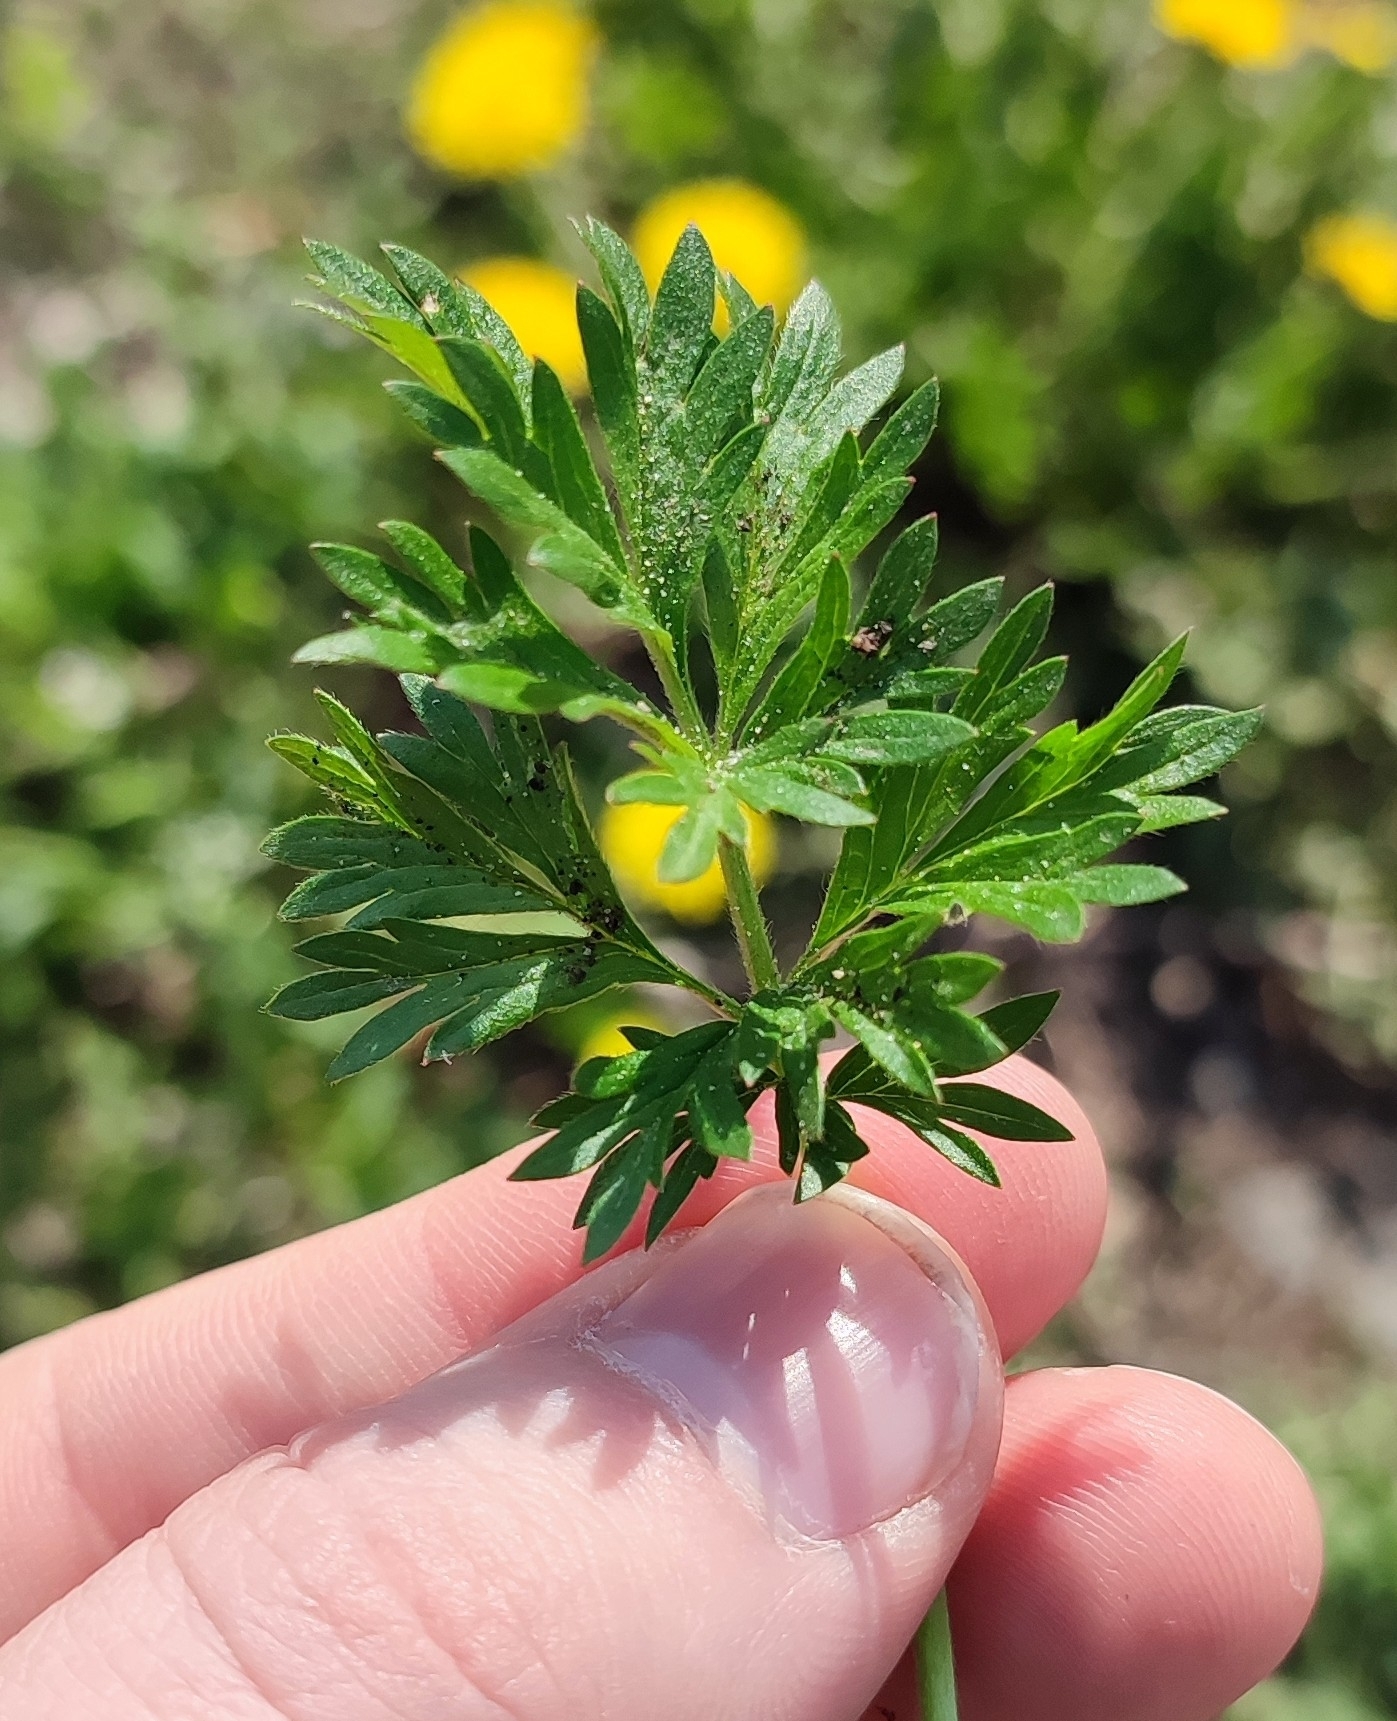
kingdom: Plantae
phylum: Tracheophyta
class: Magnoliopsida
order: Rosales
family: Rosaceae
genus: Potentilla
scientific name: Potentilla tobolensis
